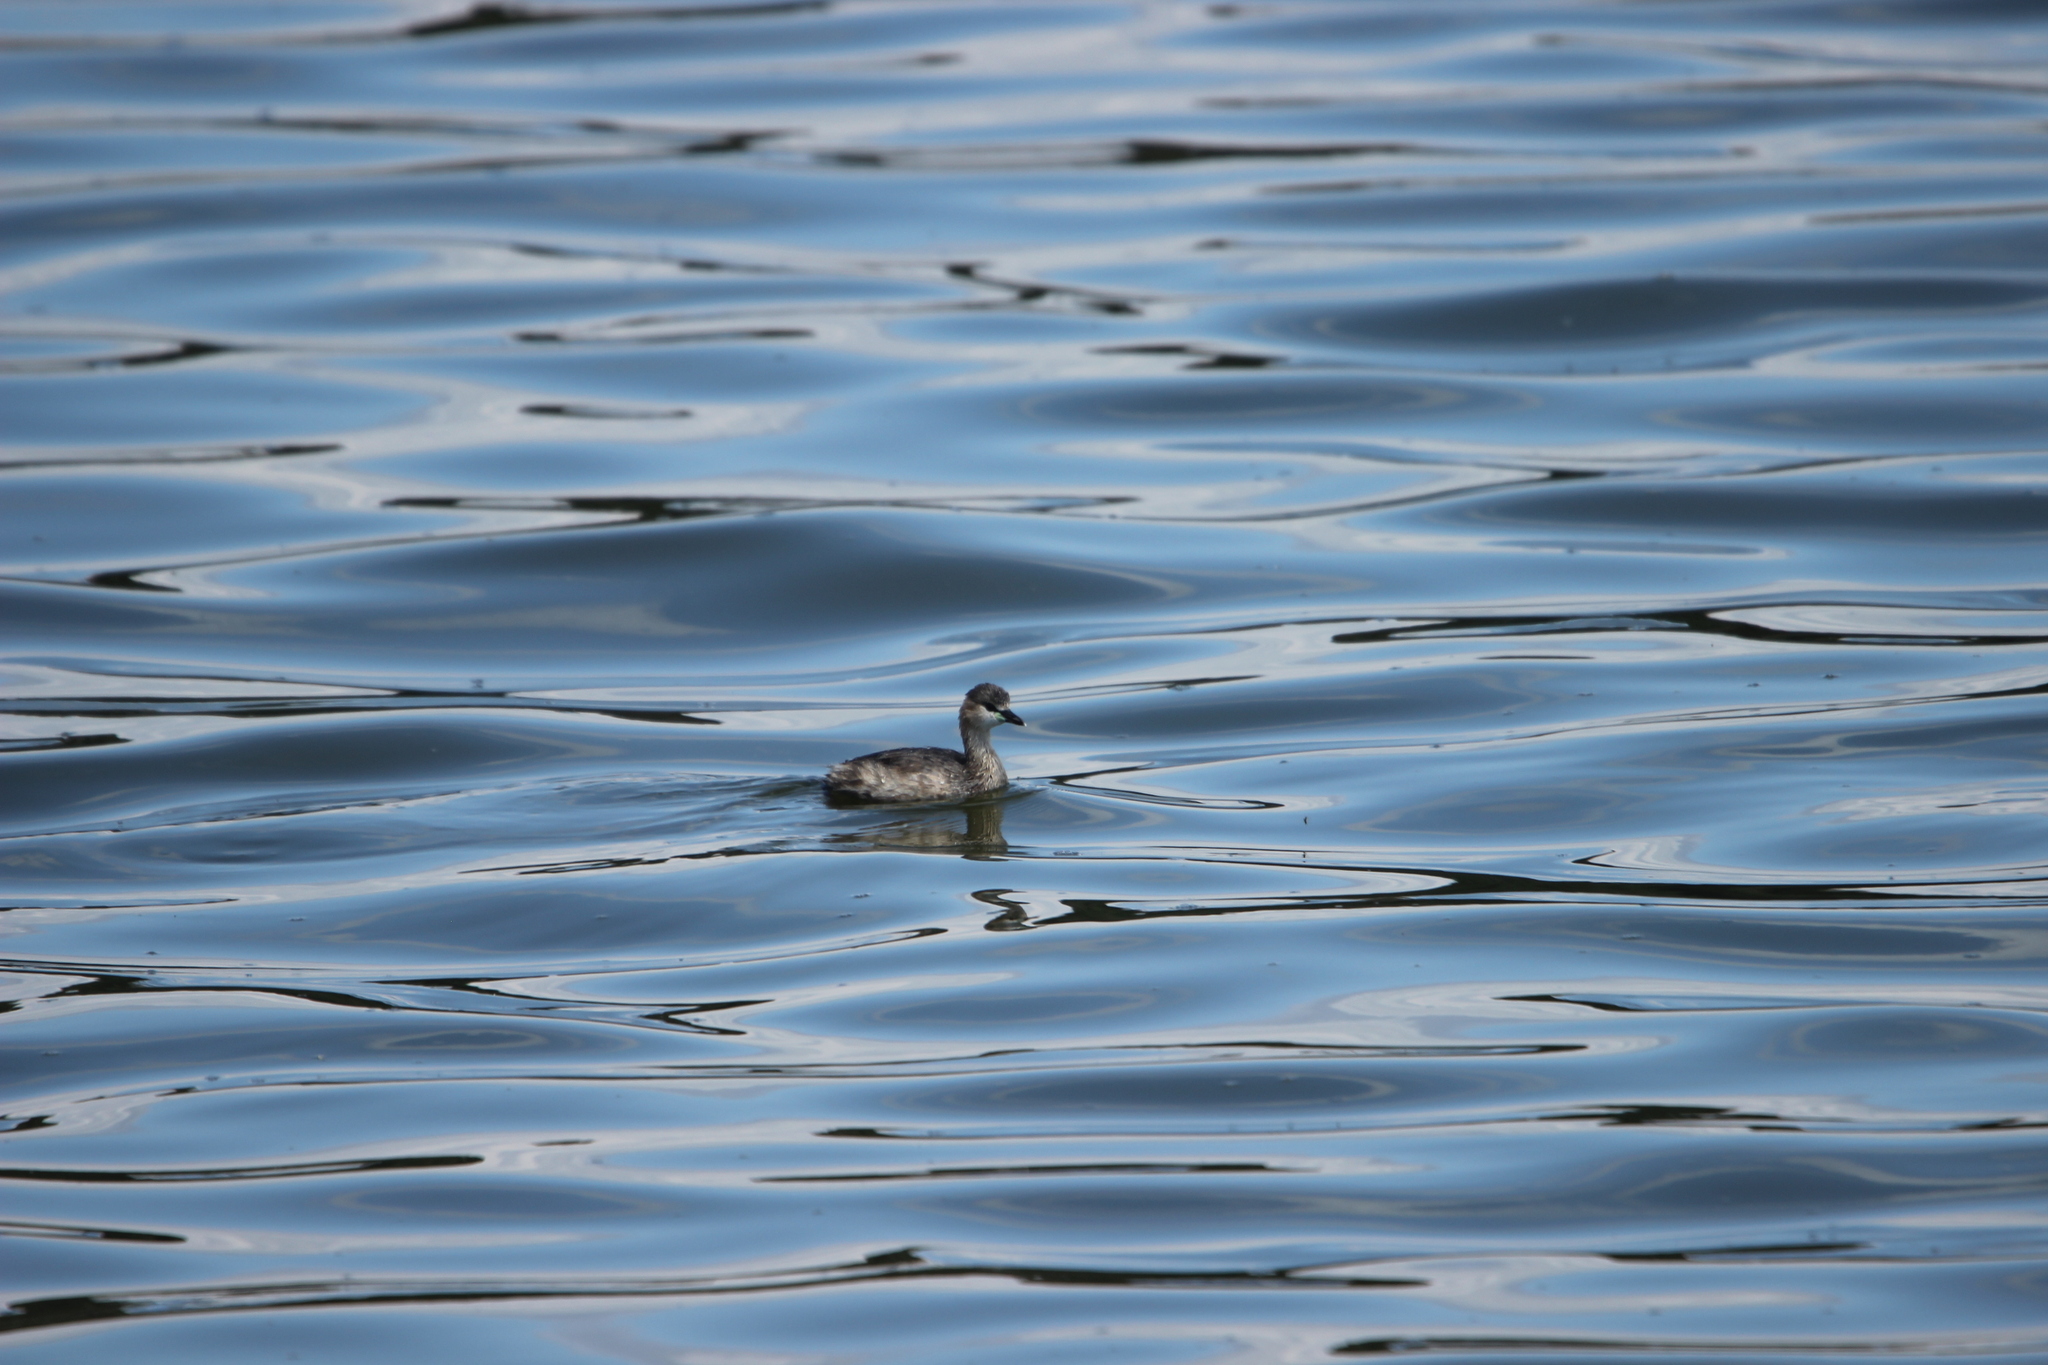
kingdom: Animalia
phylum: Chordata
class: Aves
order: Podicipediformes
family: Podicipedidae
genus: Tachybaptus
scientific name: Tachybaptus ruficollis
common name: Little grebe
